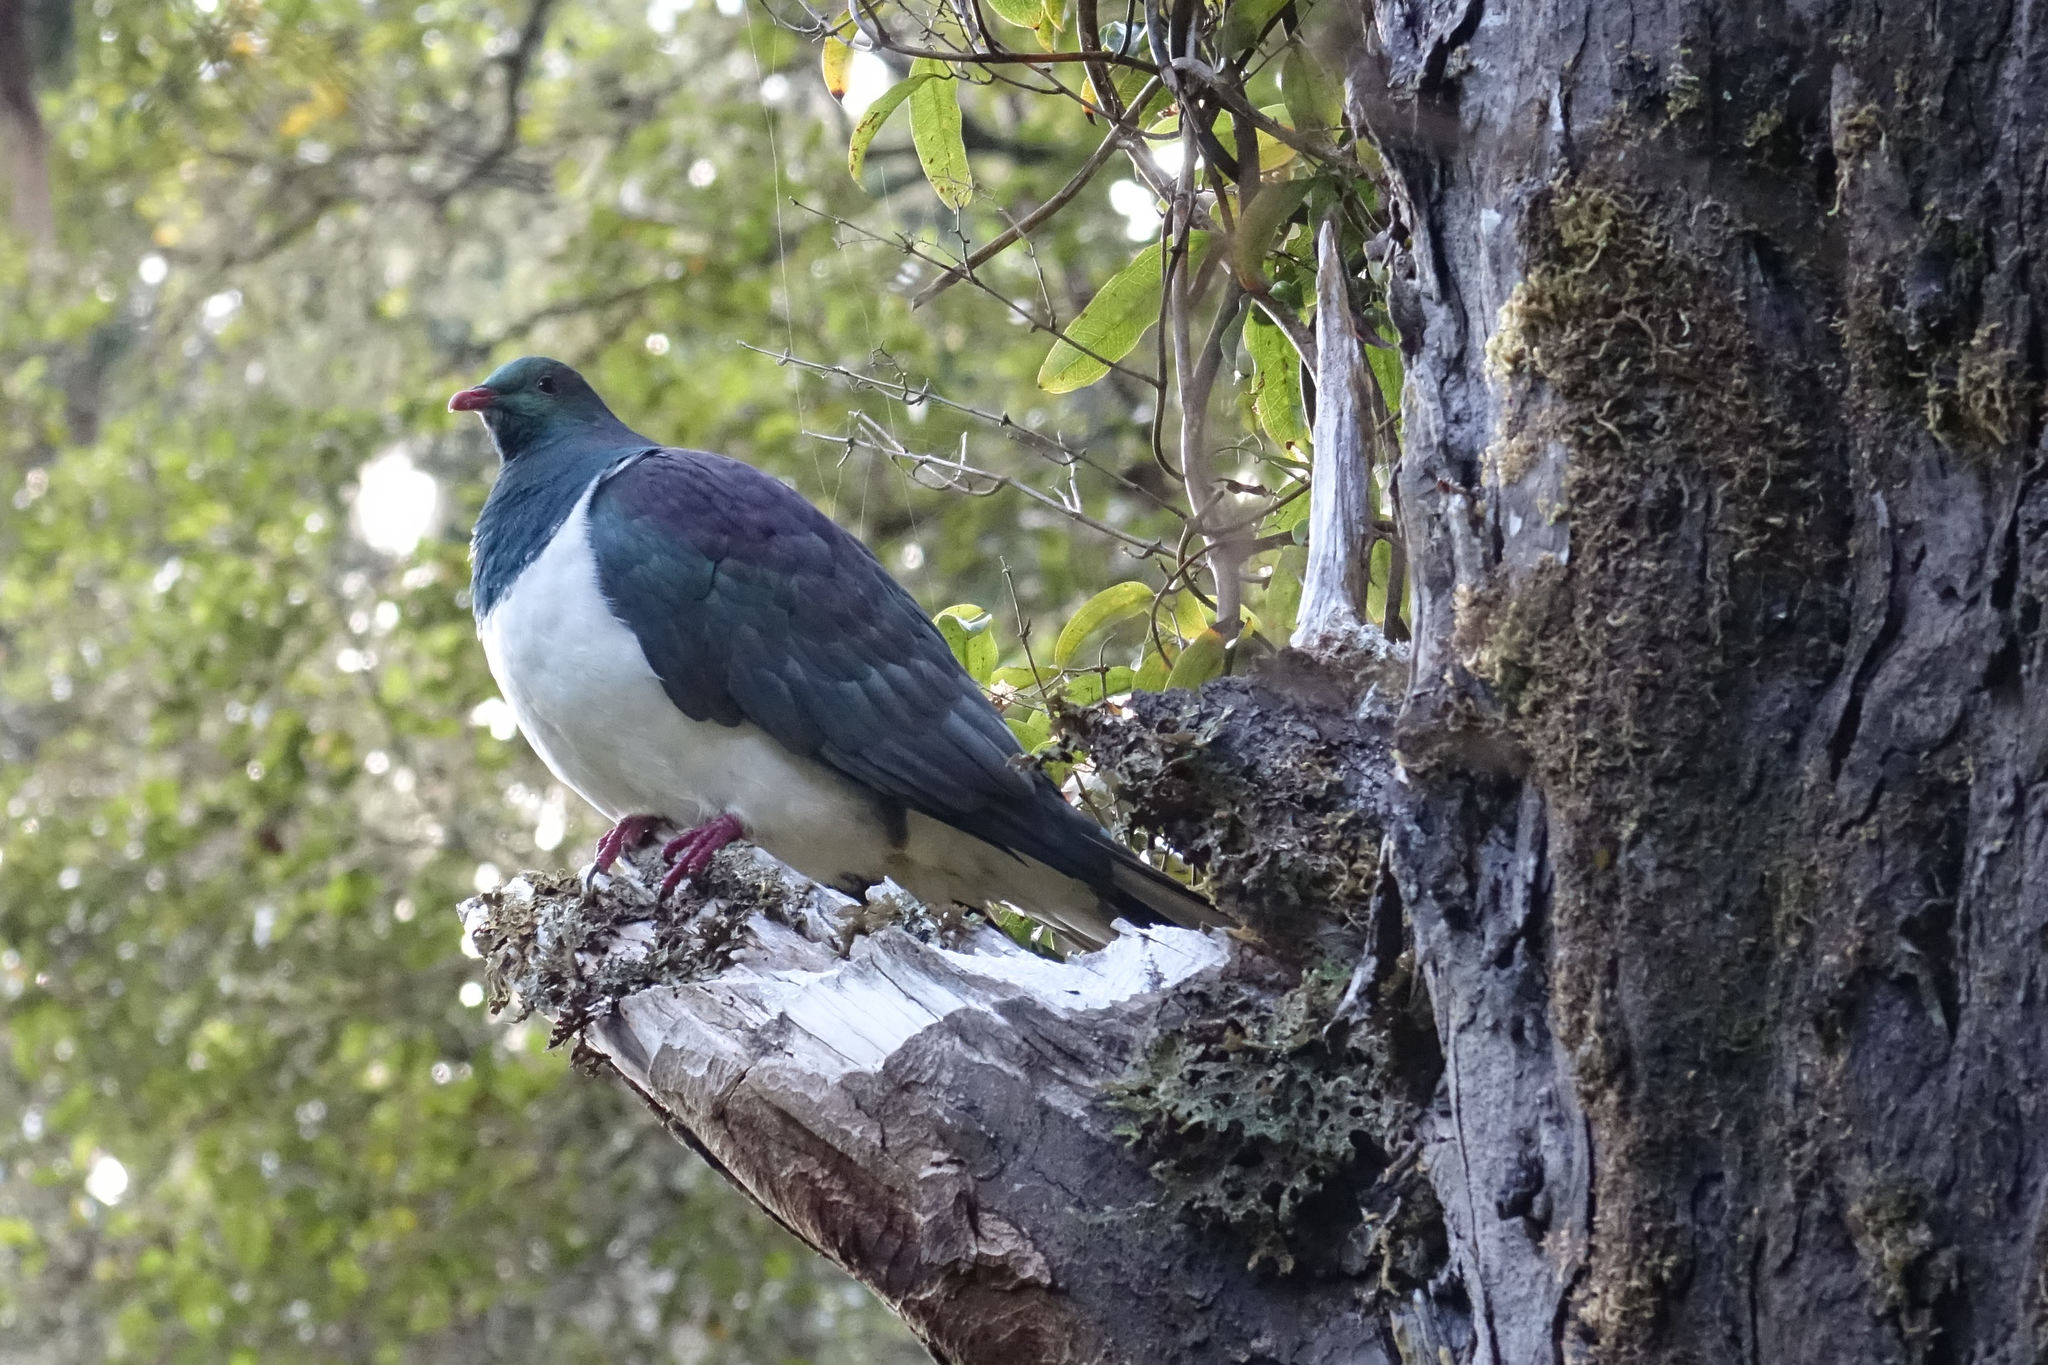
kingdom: Animalia
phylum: Chordata
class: Aves
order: Columbiformes
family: Columbidae
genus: Hemiphaga
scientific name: Hemiphaga novaeseelandiae
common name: New zealand pigeon
